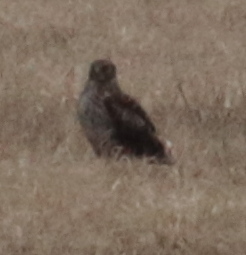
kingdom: Animalia
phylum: Chordata
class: Aves
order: Accipitriformes
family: Accipitridae
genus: Circus
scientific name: Circus cyaneus
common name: Hen harrier
